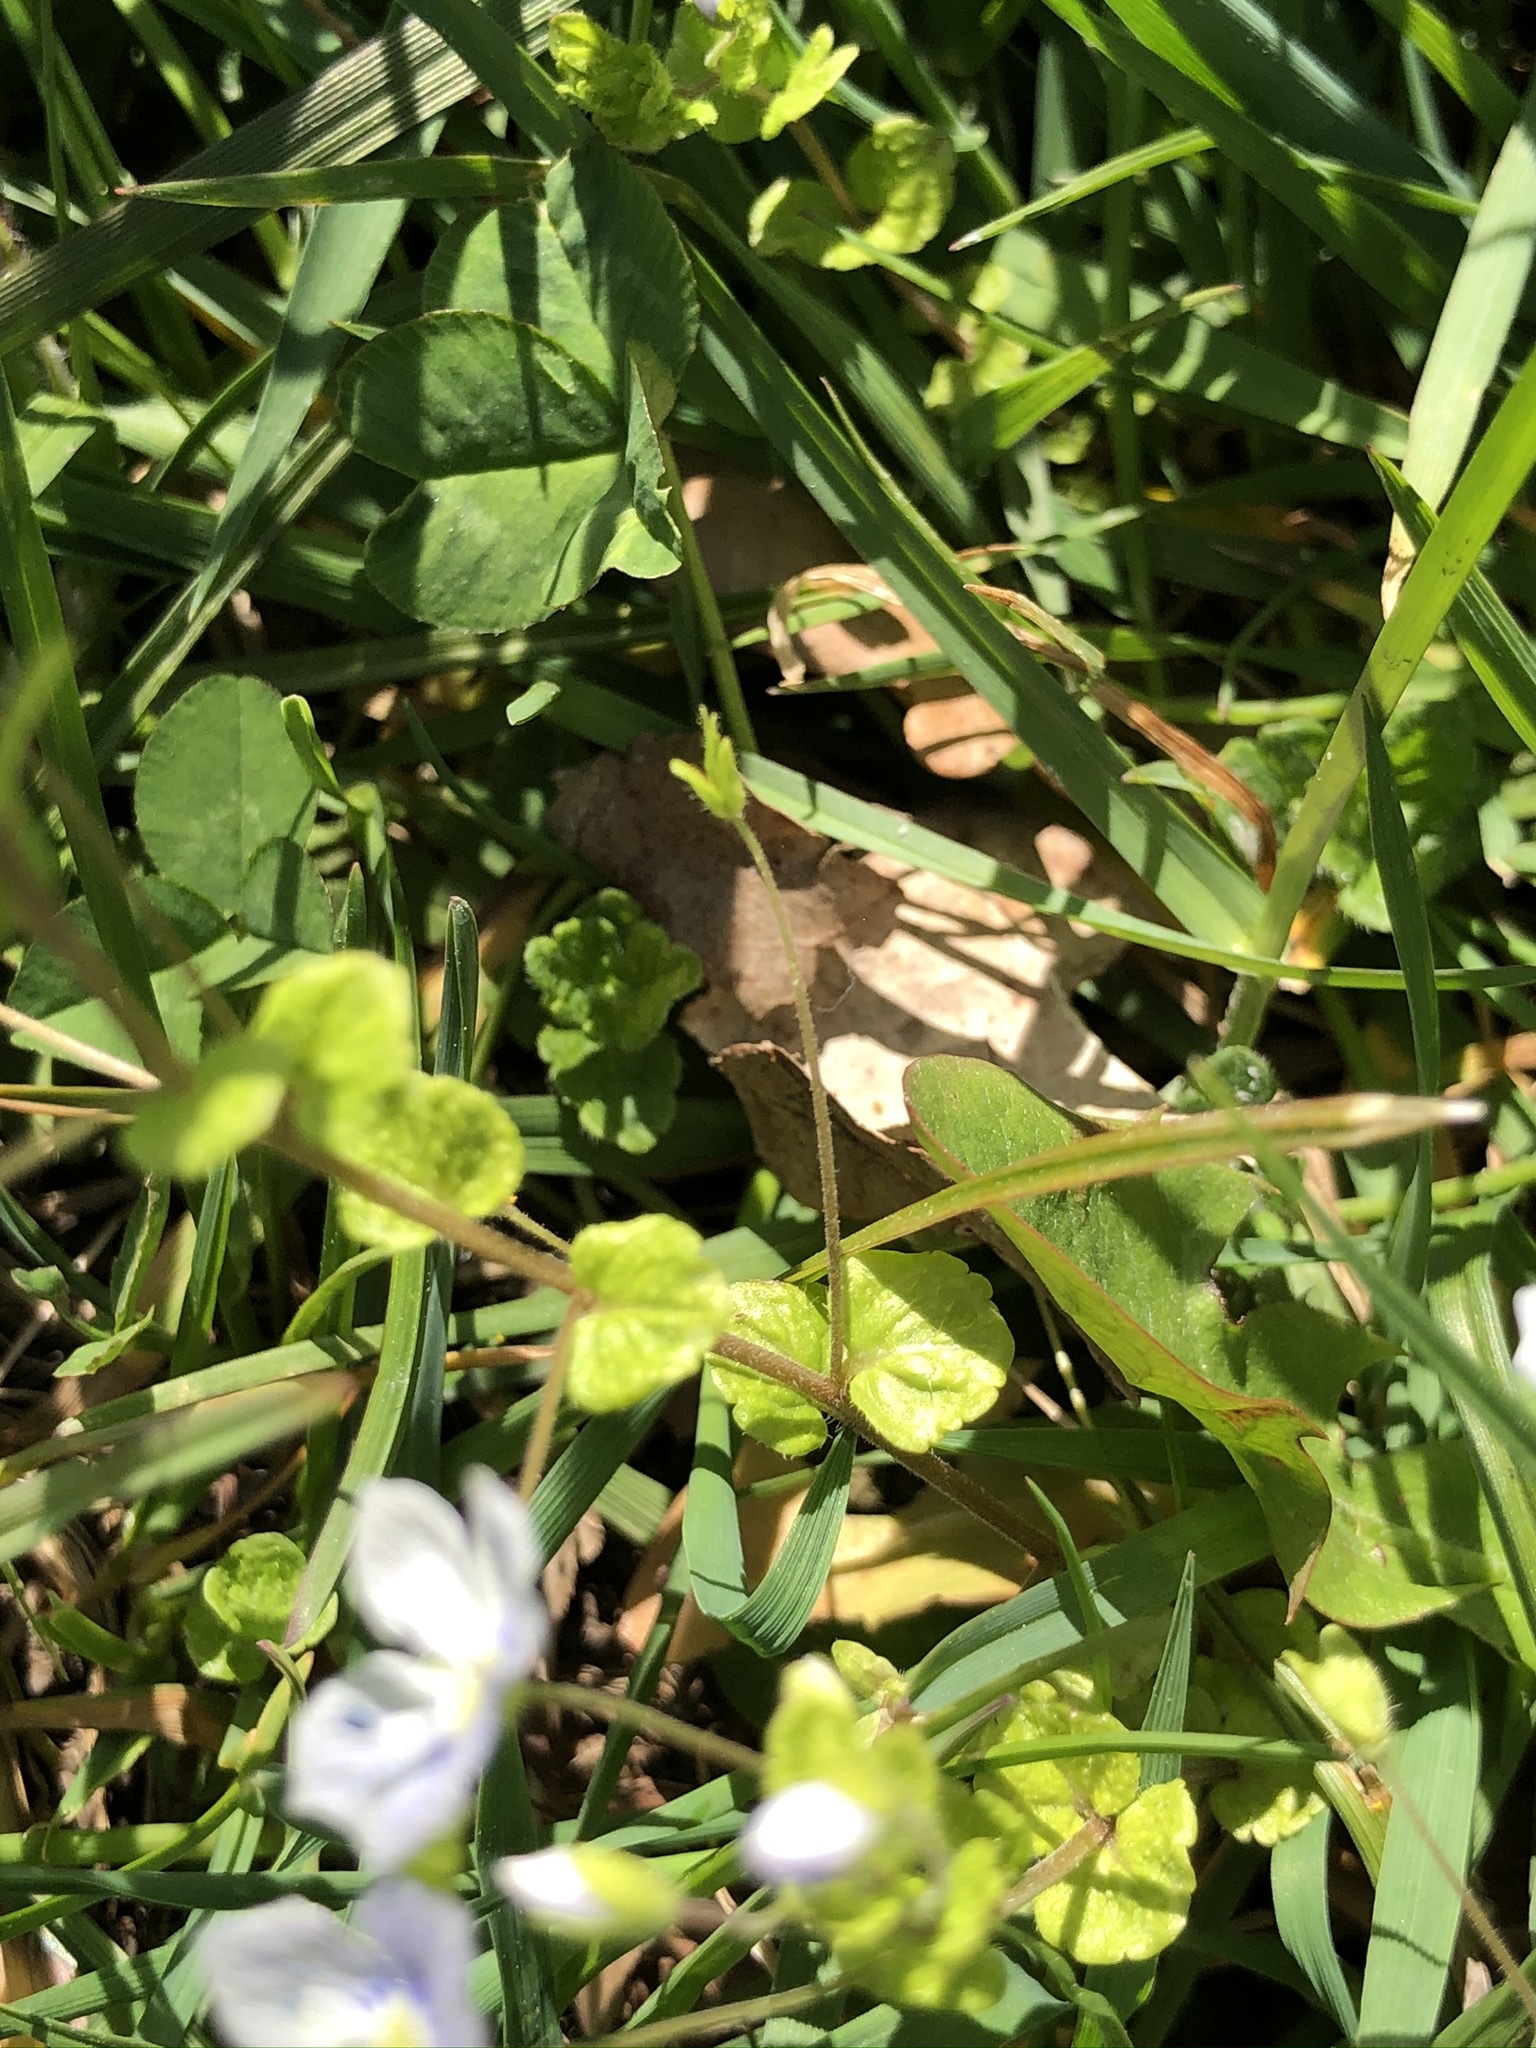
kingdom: Plantae
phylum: Tracheophyta
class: Magnoliopsida
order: Lamiales
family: Plantaginaceae
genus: Veronica
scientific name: Veronica filiformis
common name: Slender speedwell
